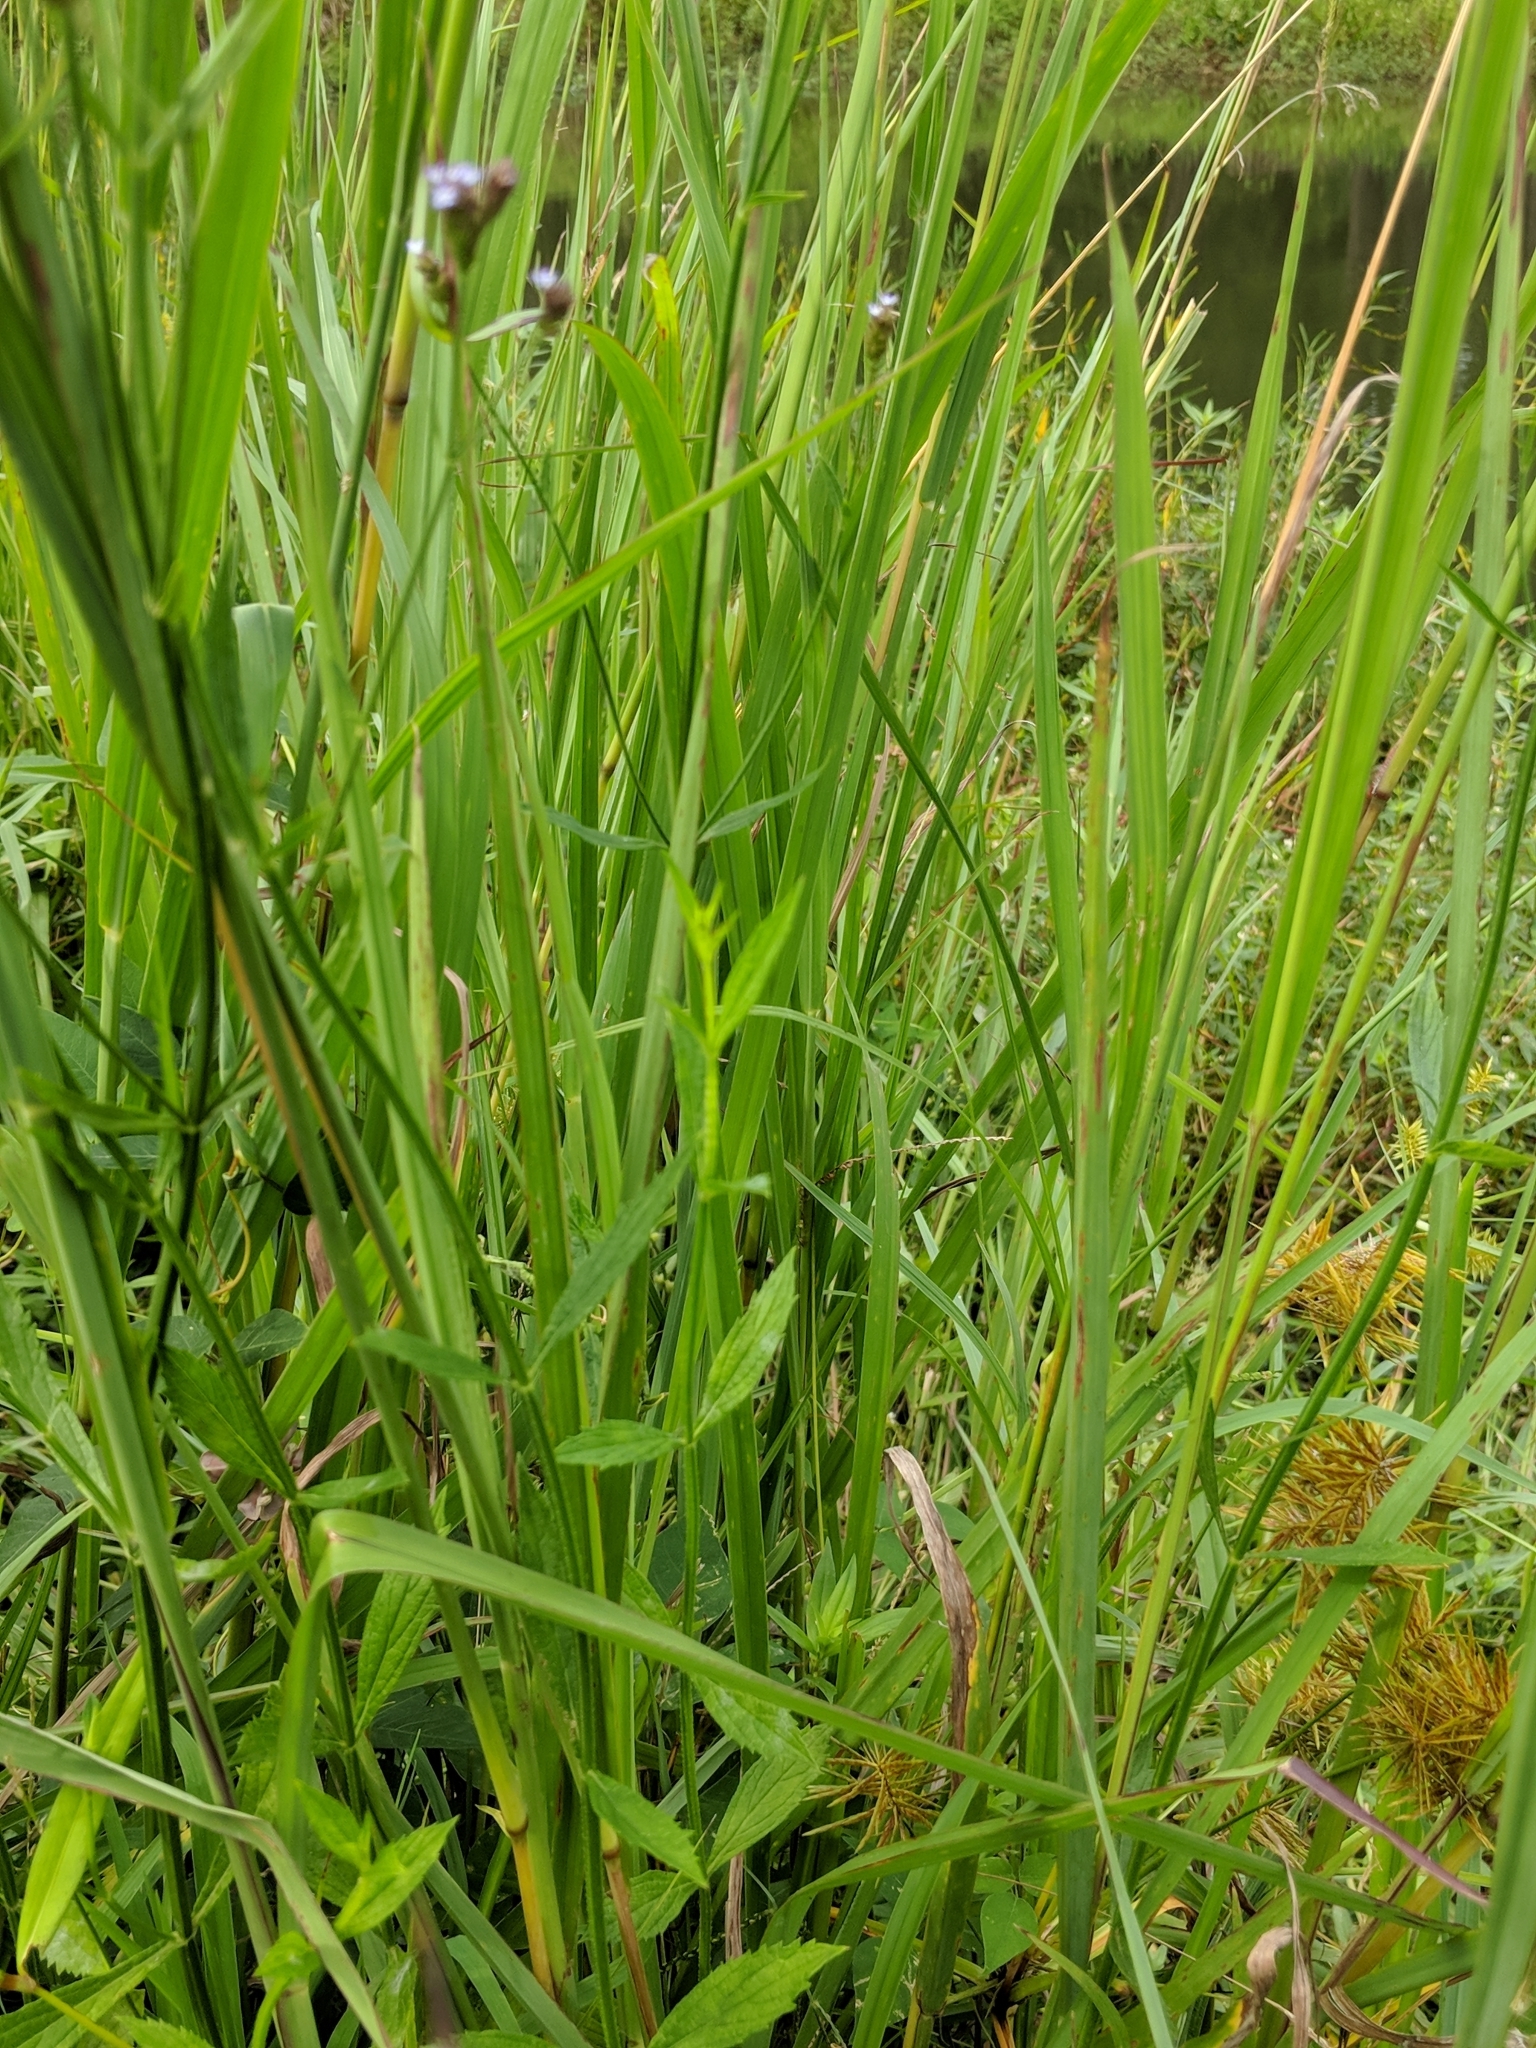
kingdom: Plantae
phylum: Tracheophyta
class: Magnoliopsida
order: Lamiales
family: Verbenaceae
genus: Verbena
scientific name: Verbena brasiliensis
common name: Brazilian vervain
